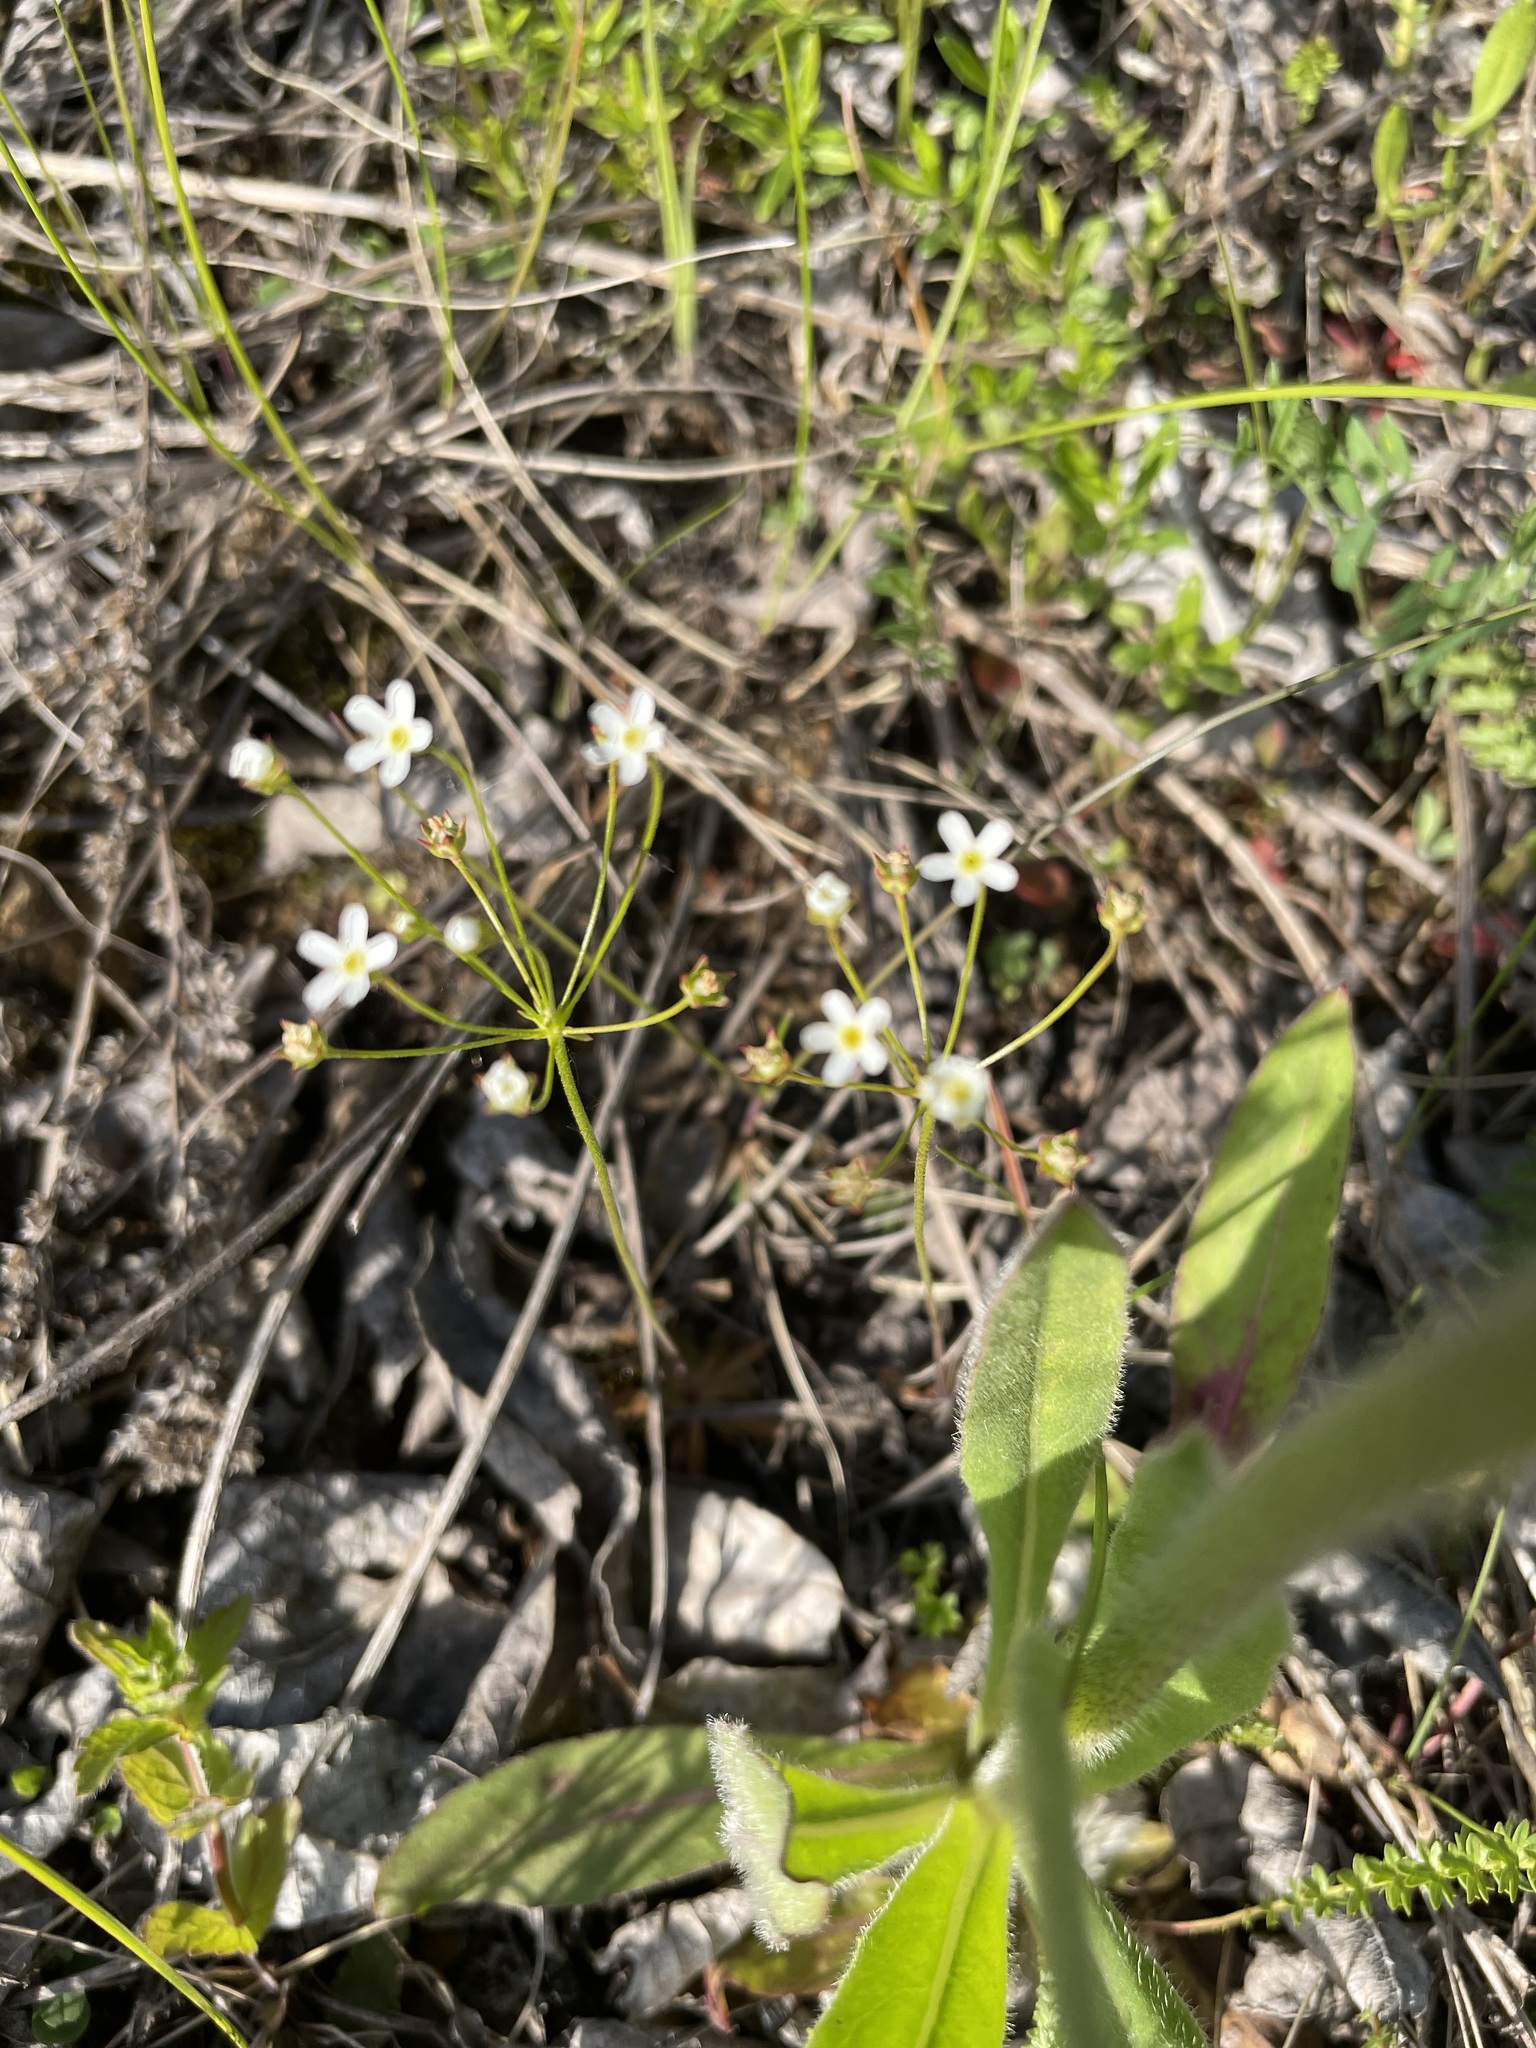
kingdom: Plantae
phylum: Tracheophyta
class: Magnoliopsida
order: Ericales
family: Primulaceae
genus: Androsace
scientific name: Androsace septentrionalis
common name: Hairy northern fairy-candelabra
